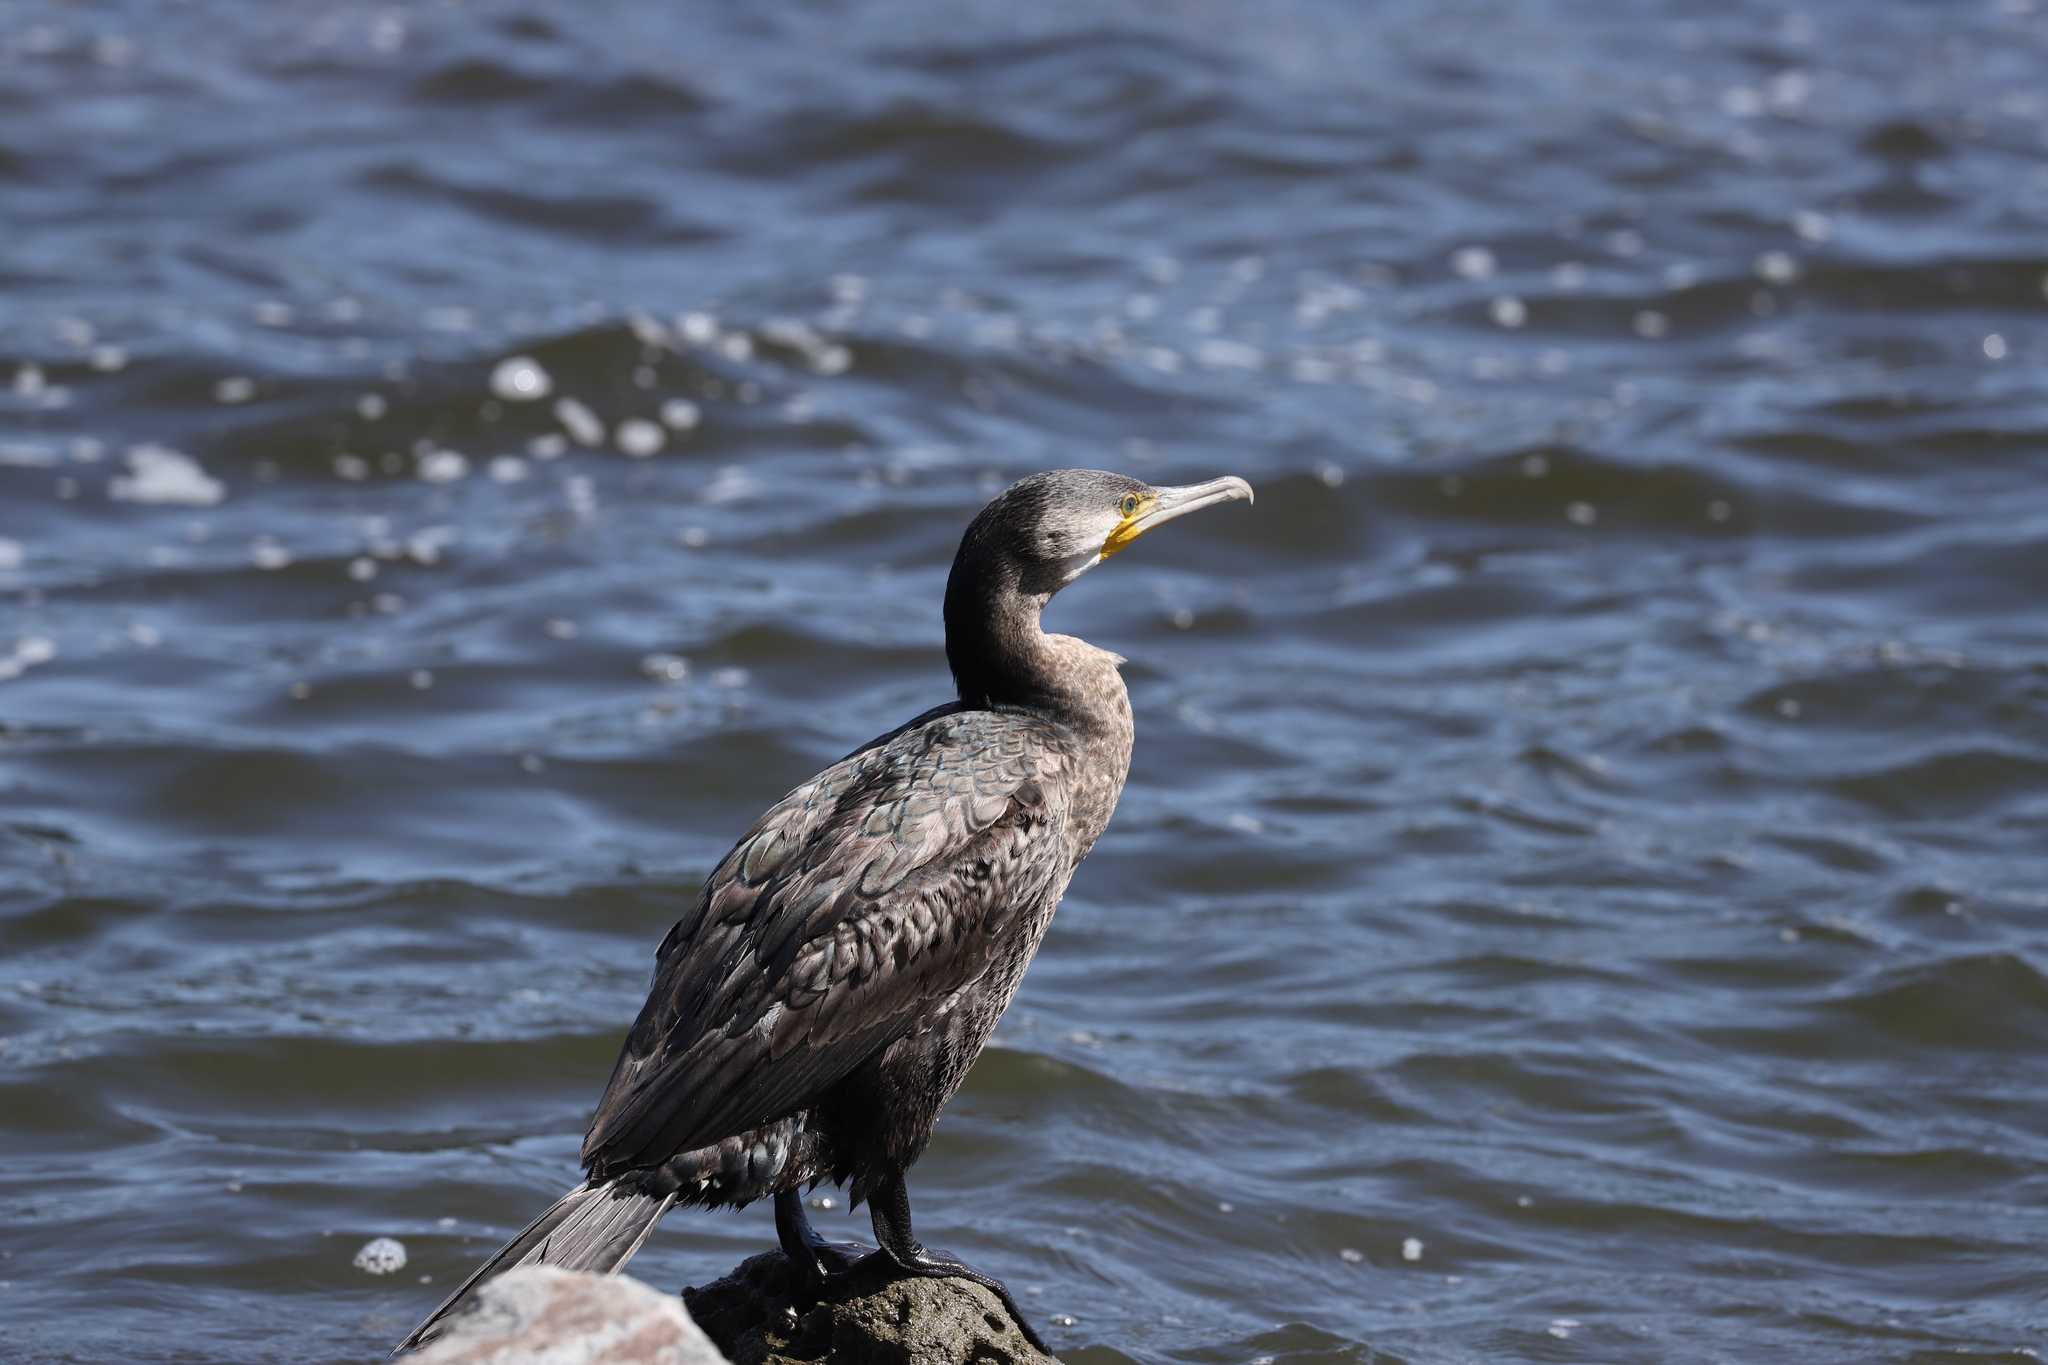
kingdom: Animalia
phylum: Chordata
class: Aves
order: Suliformes
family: Phalacrocoracidae
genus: Phalacrocorax
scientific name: Phalacrocorax carbo
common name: Great cormorant
